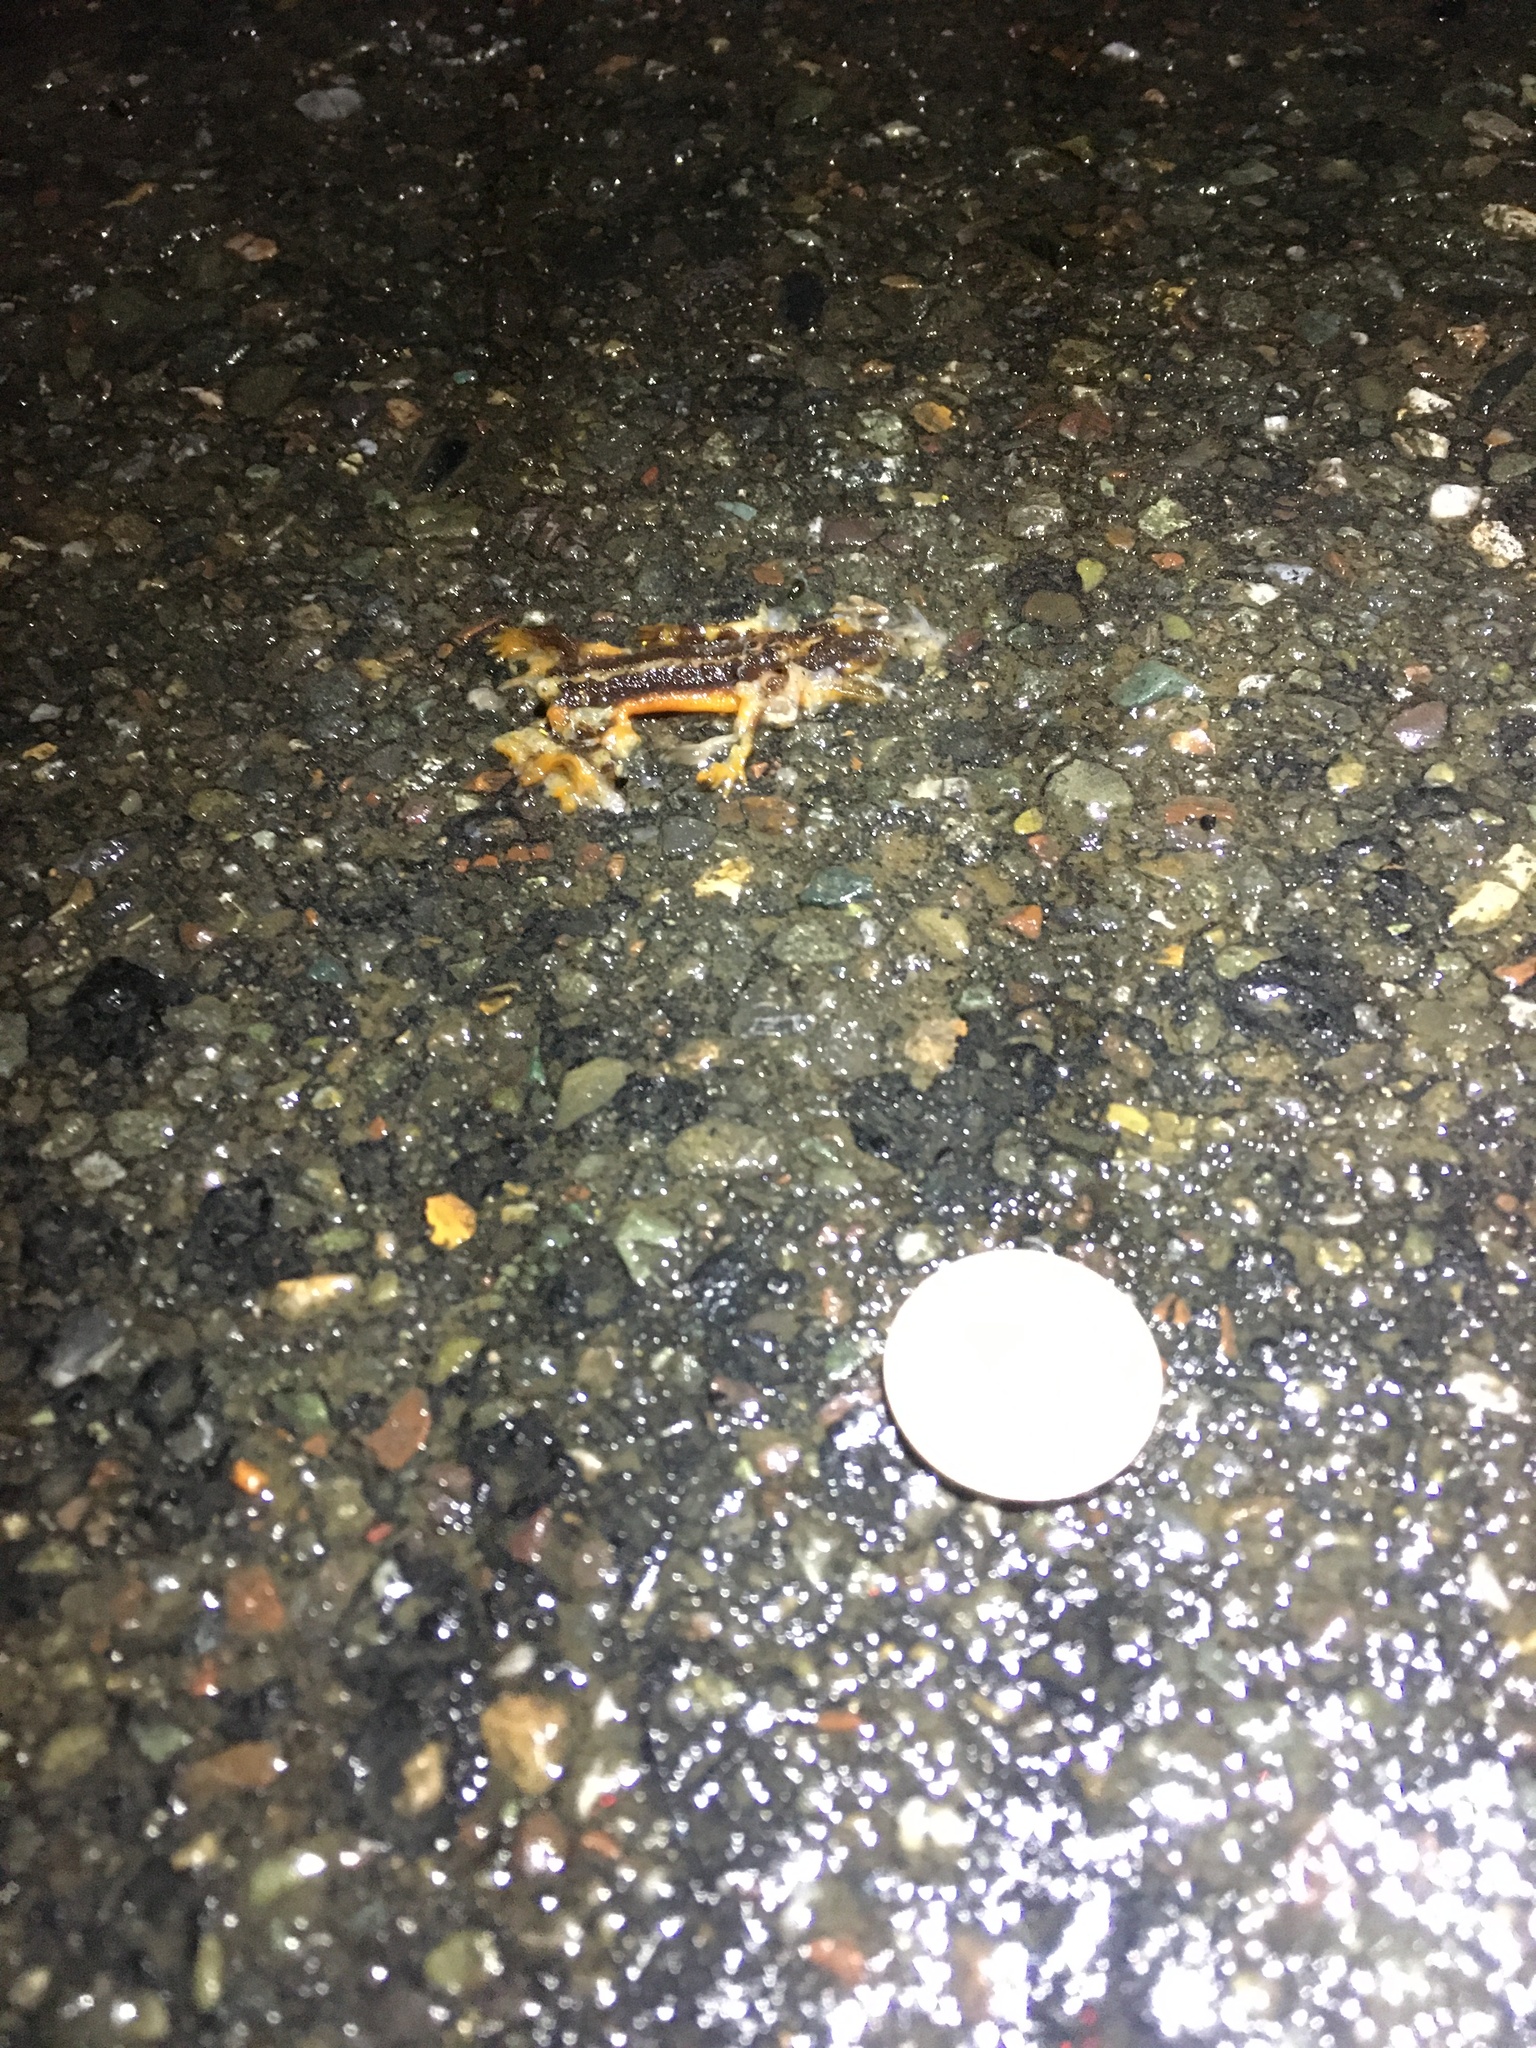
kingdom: Animalia
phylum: Chordata
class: Amphibia
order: Caudata
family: Salamandridae
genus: Taricha
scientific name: Taricha
